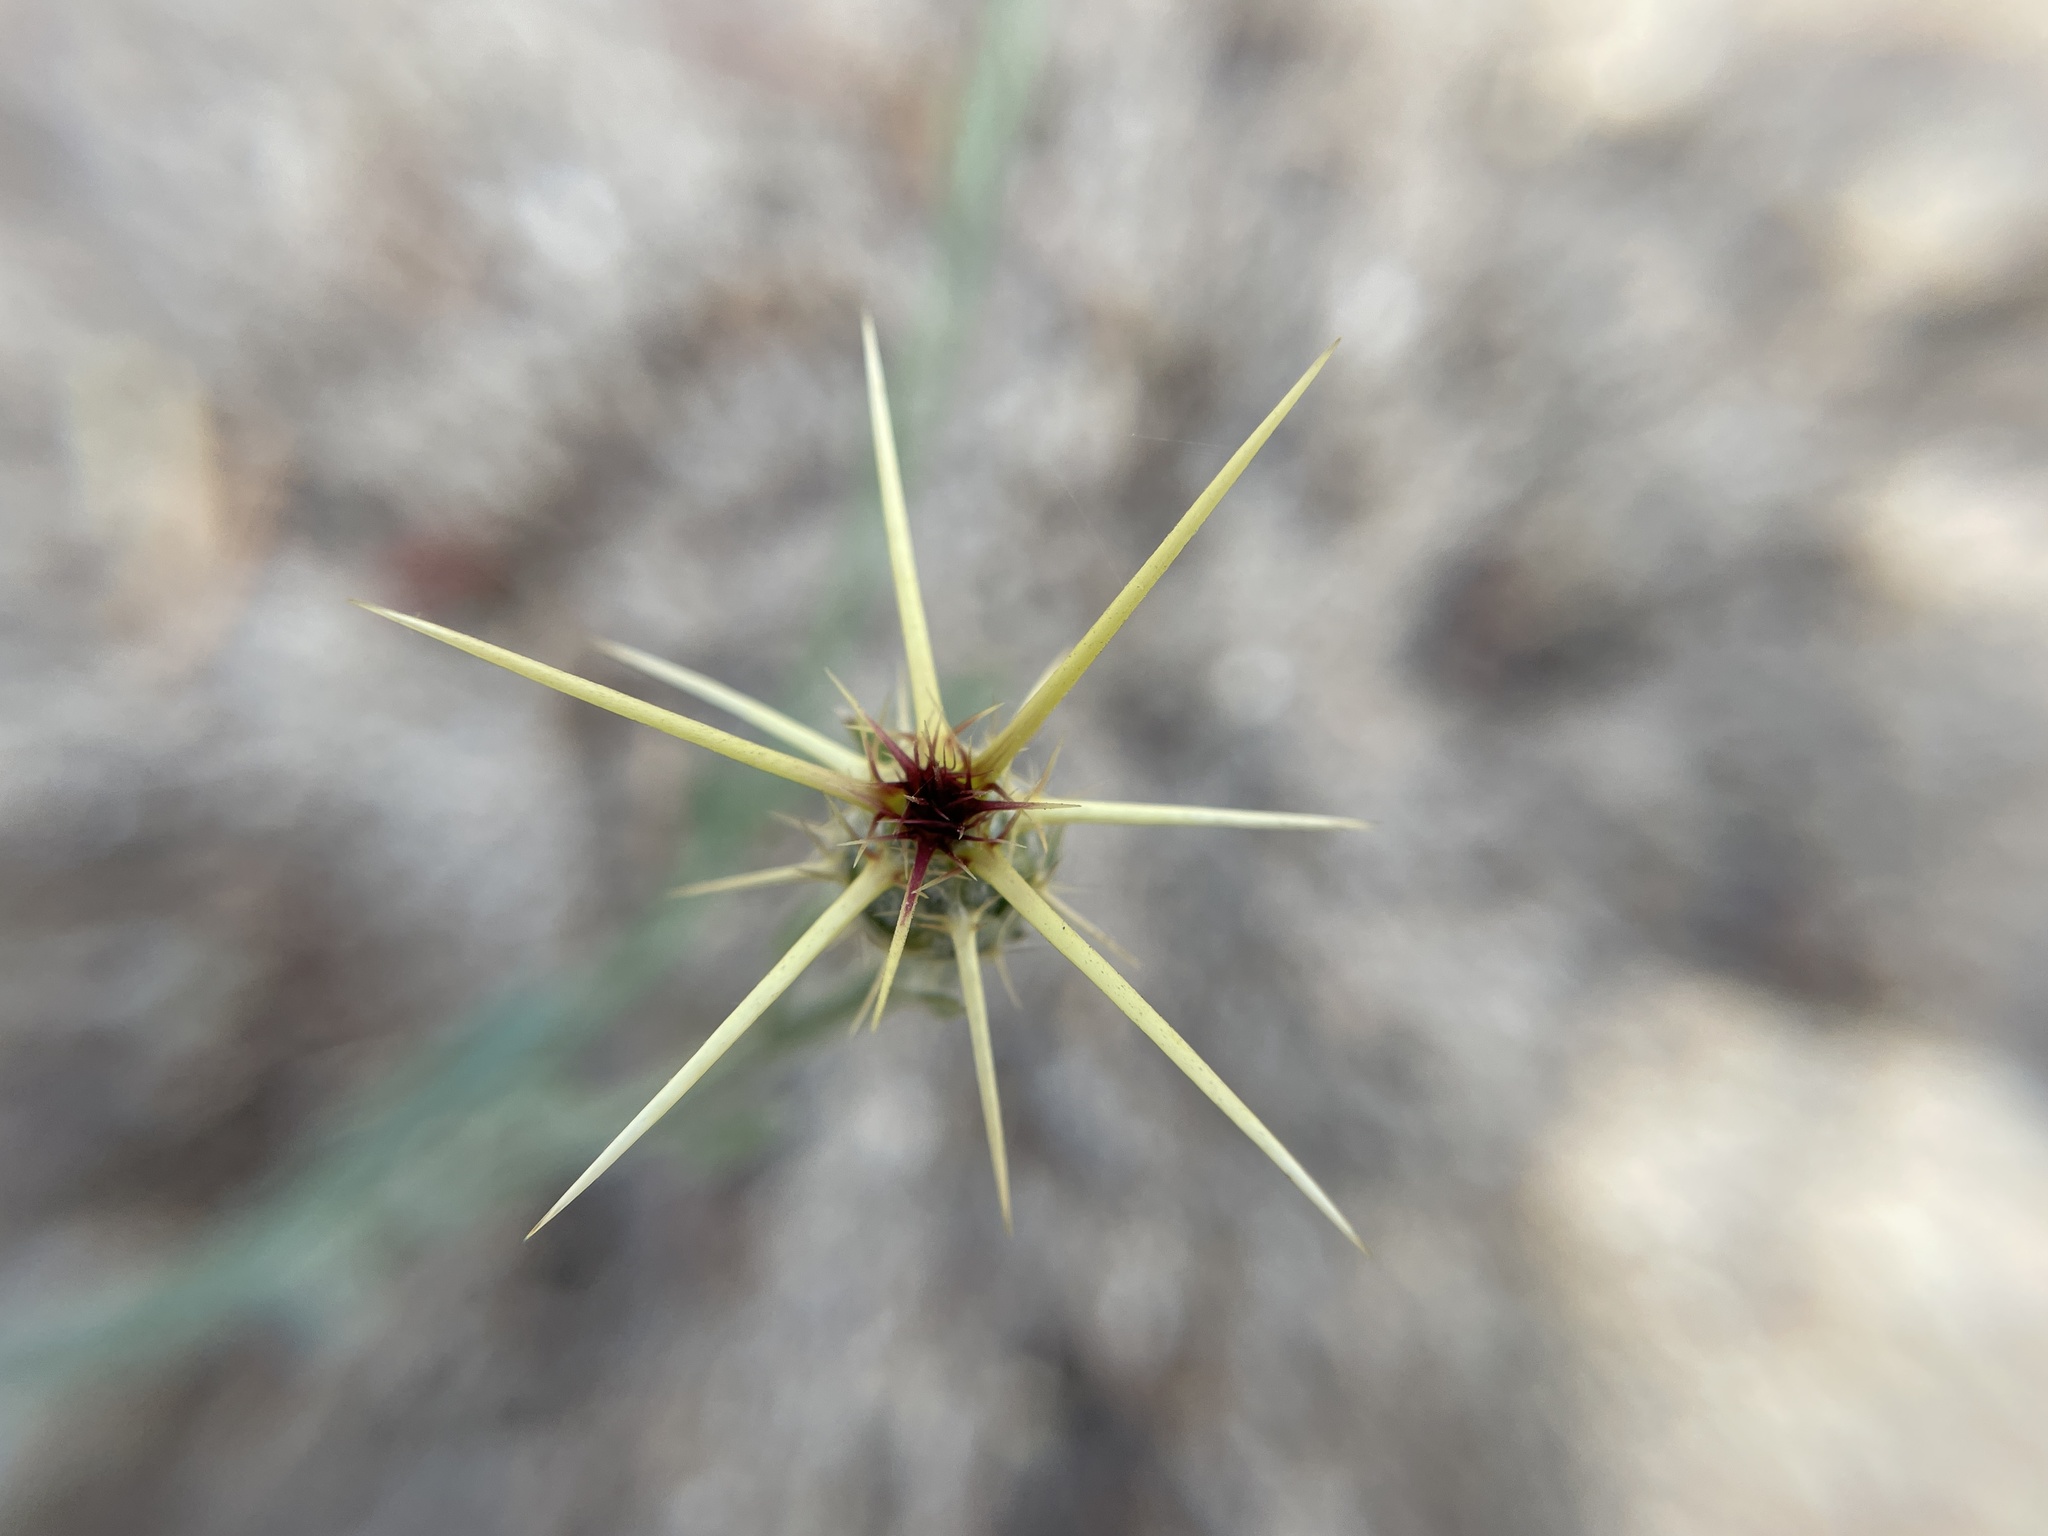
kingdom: Plantae
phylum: Tracheophyta
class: Magnoliopsida
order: Asterales
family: Asteraceae
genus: Centaurea
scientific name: Centaurea solstitialis
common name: Yellow star-thistle
